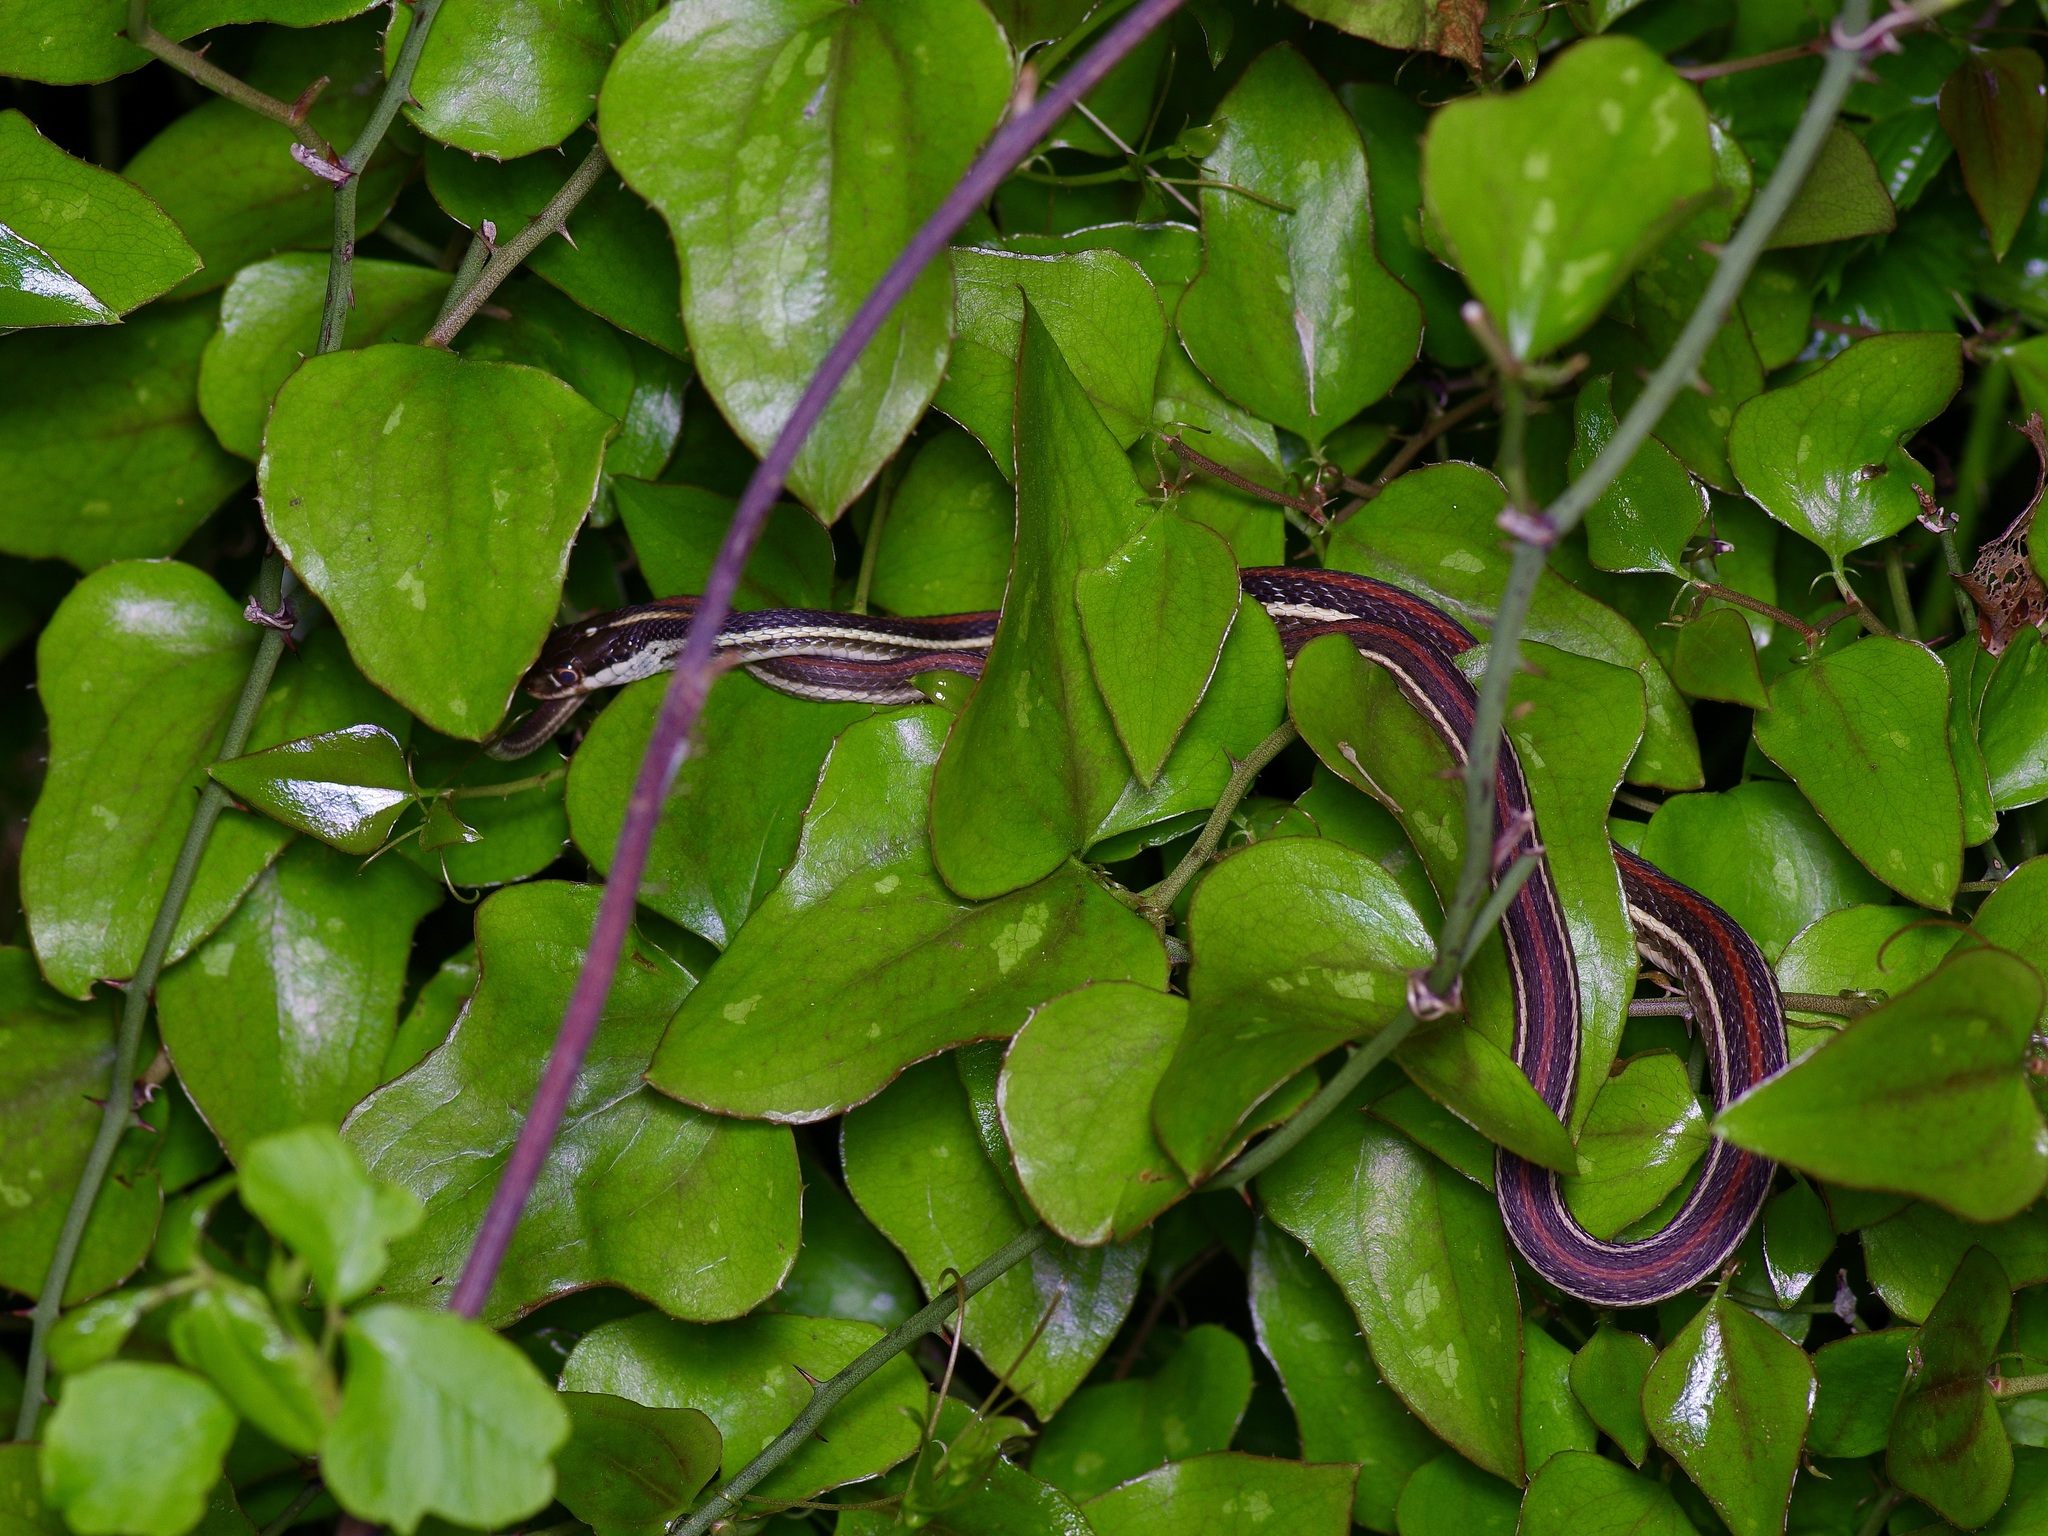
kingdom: Animalia
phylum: Chordata
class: Squamata
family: Colubridae
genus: Thamnophis
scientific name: Thamnophis proximus
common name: Western ribbon snake
